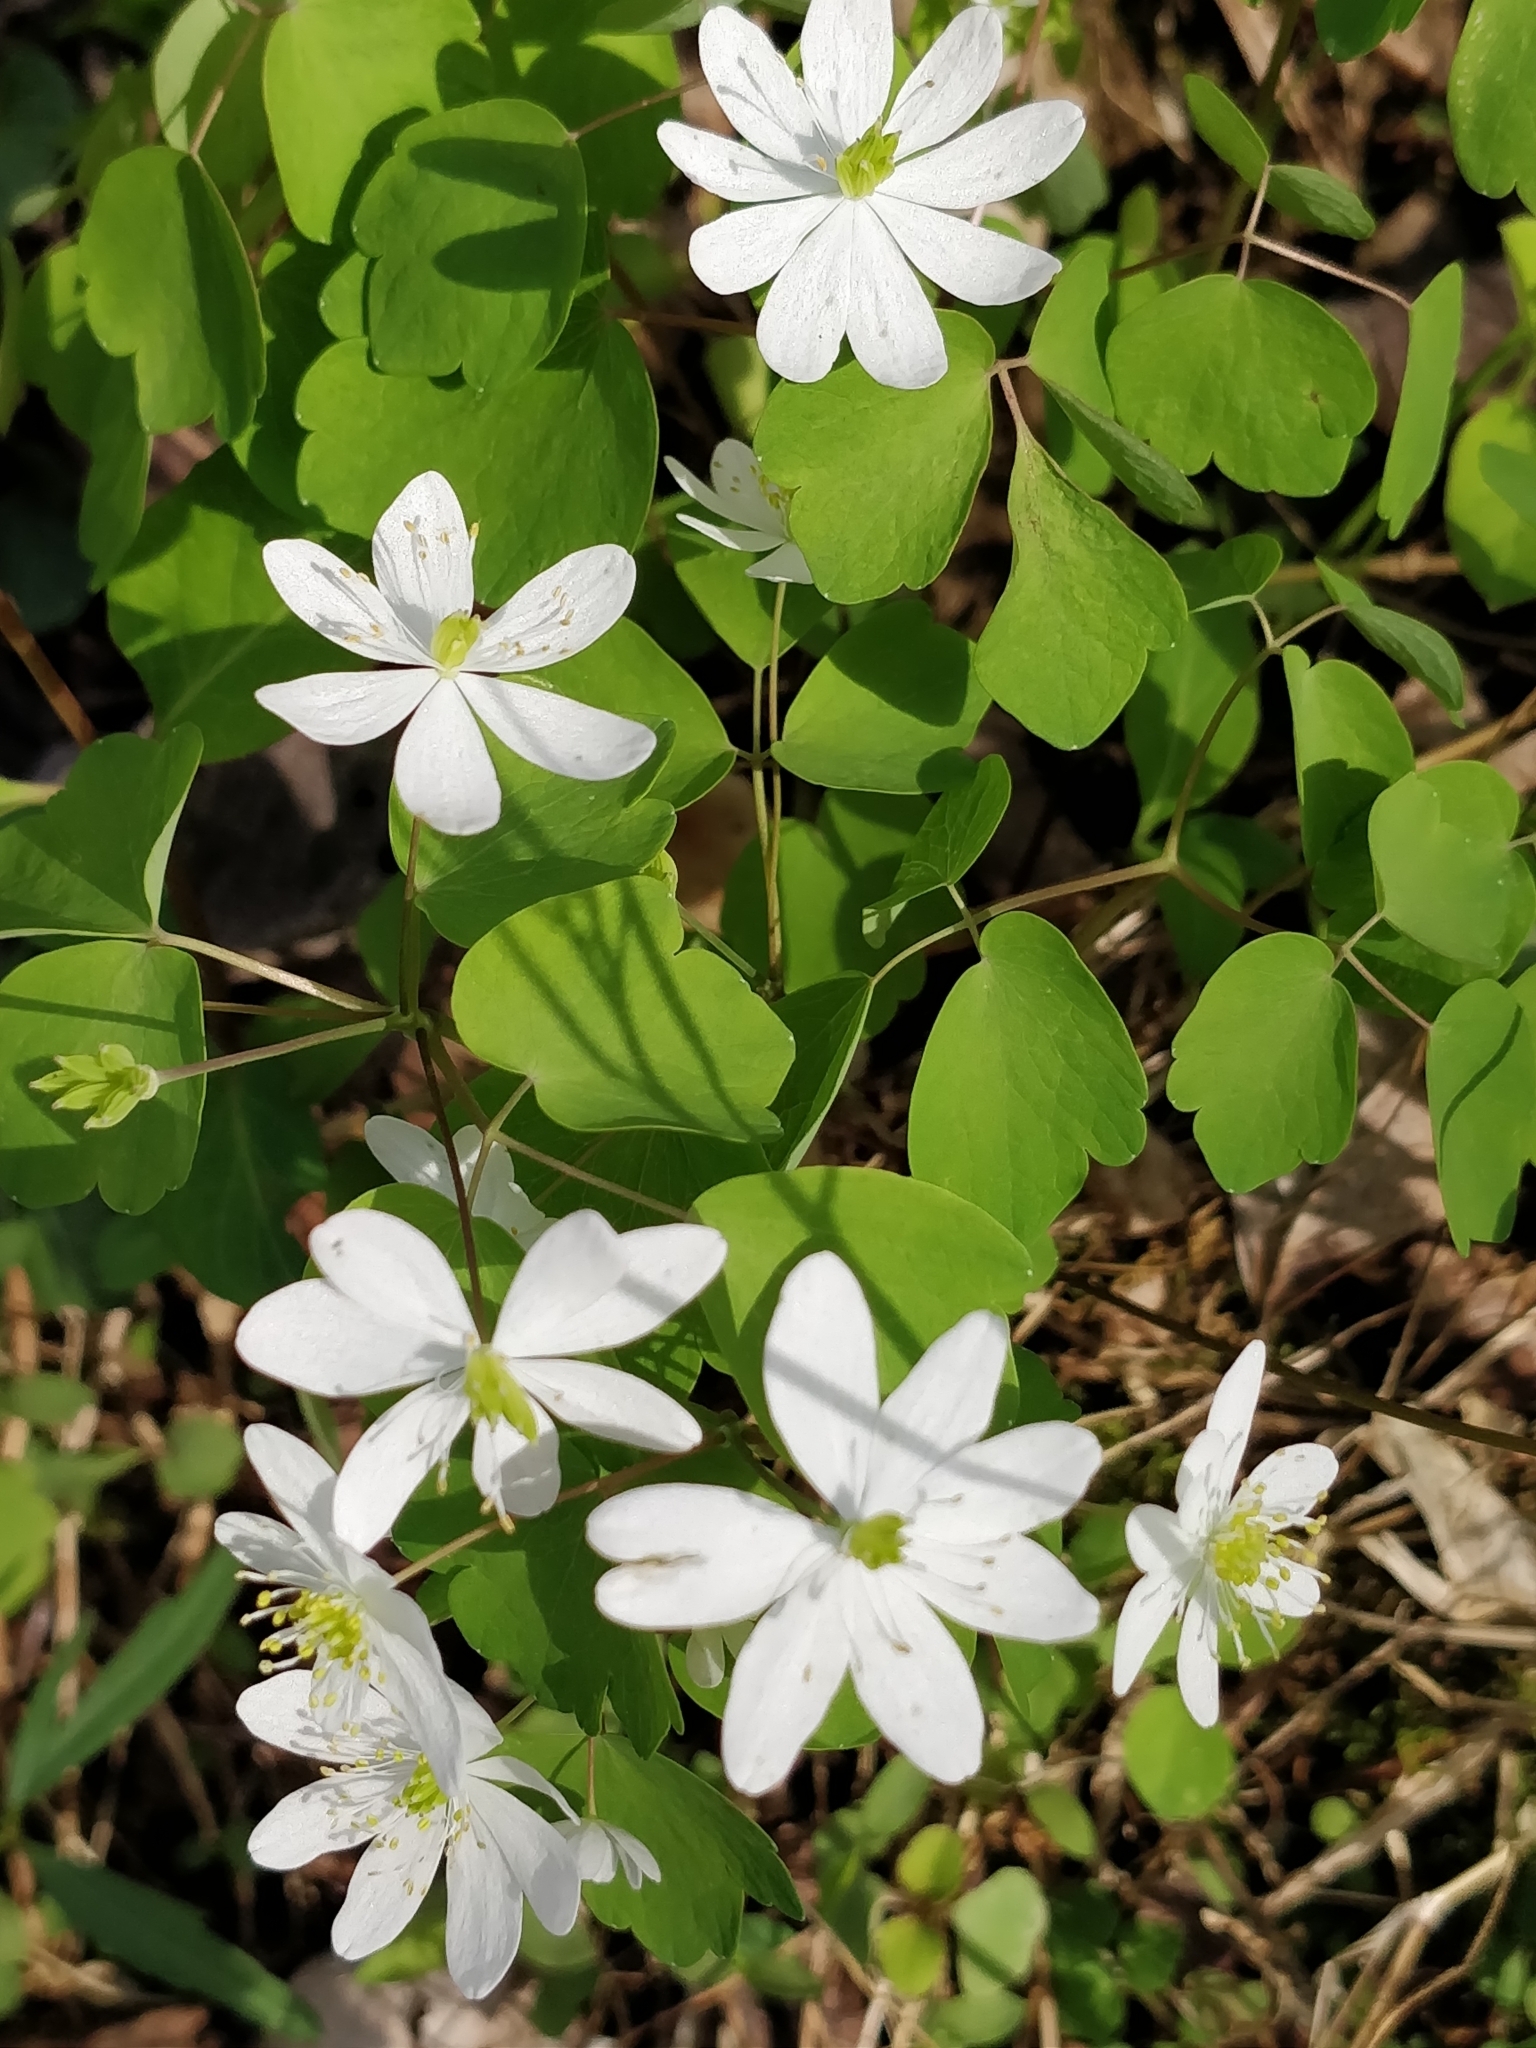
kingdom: Plantae
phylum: Tracheophyta
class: Magnoliopsida
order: Ranunculales
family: Ranunculaceae
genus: Thalictrum
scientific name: Thalictrum thalictroides
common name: Rue-anemone
